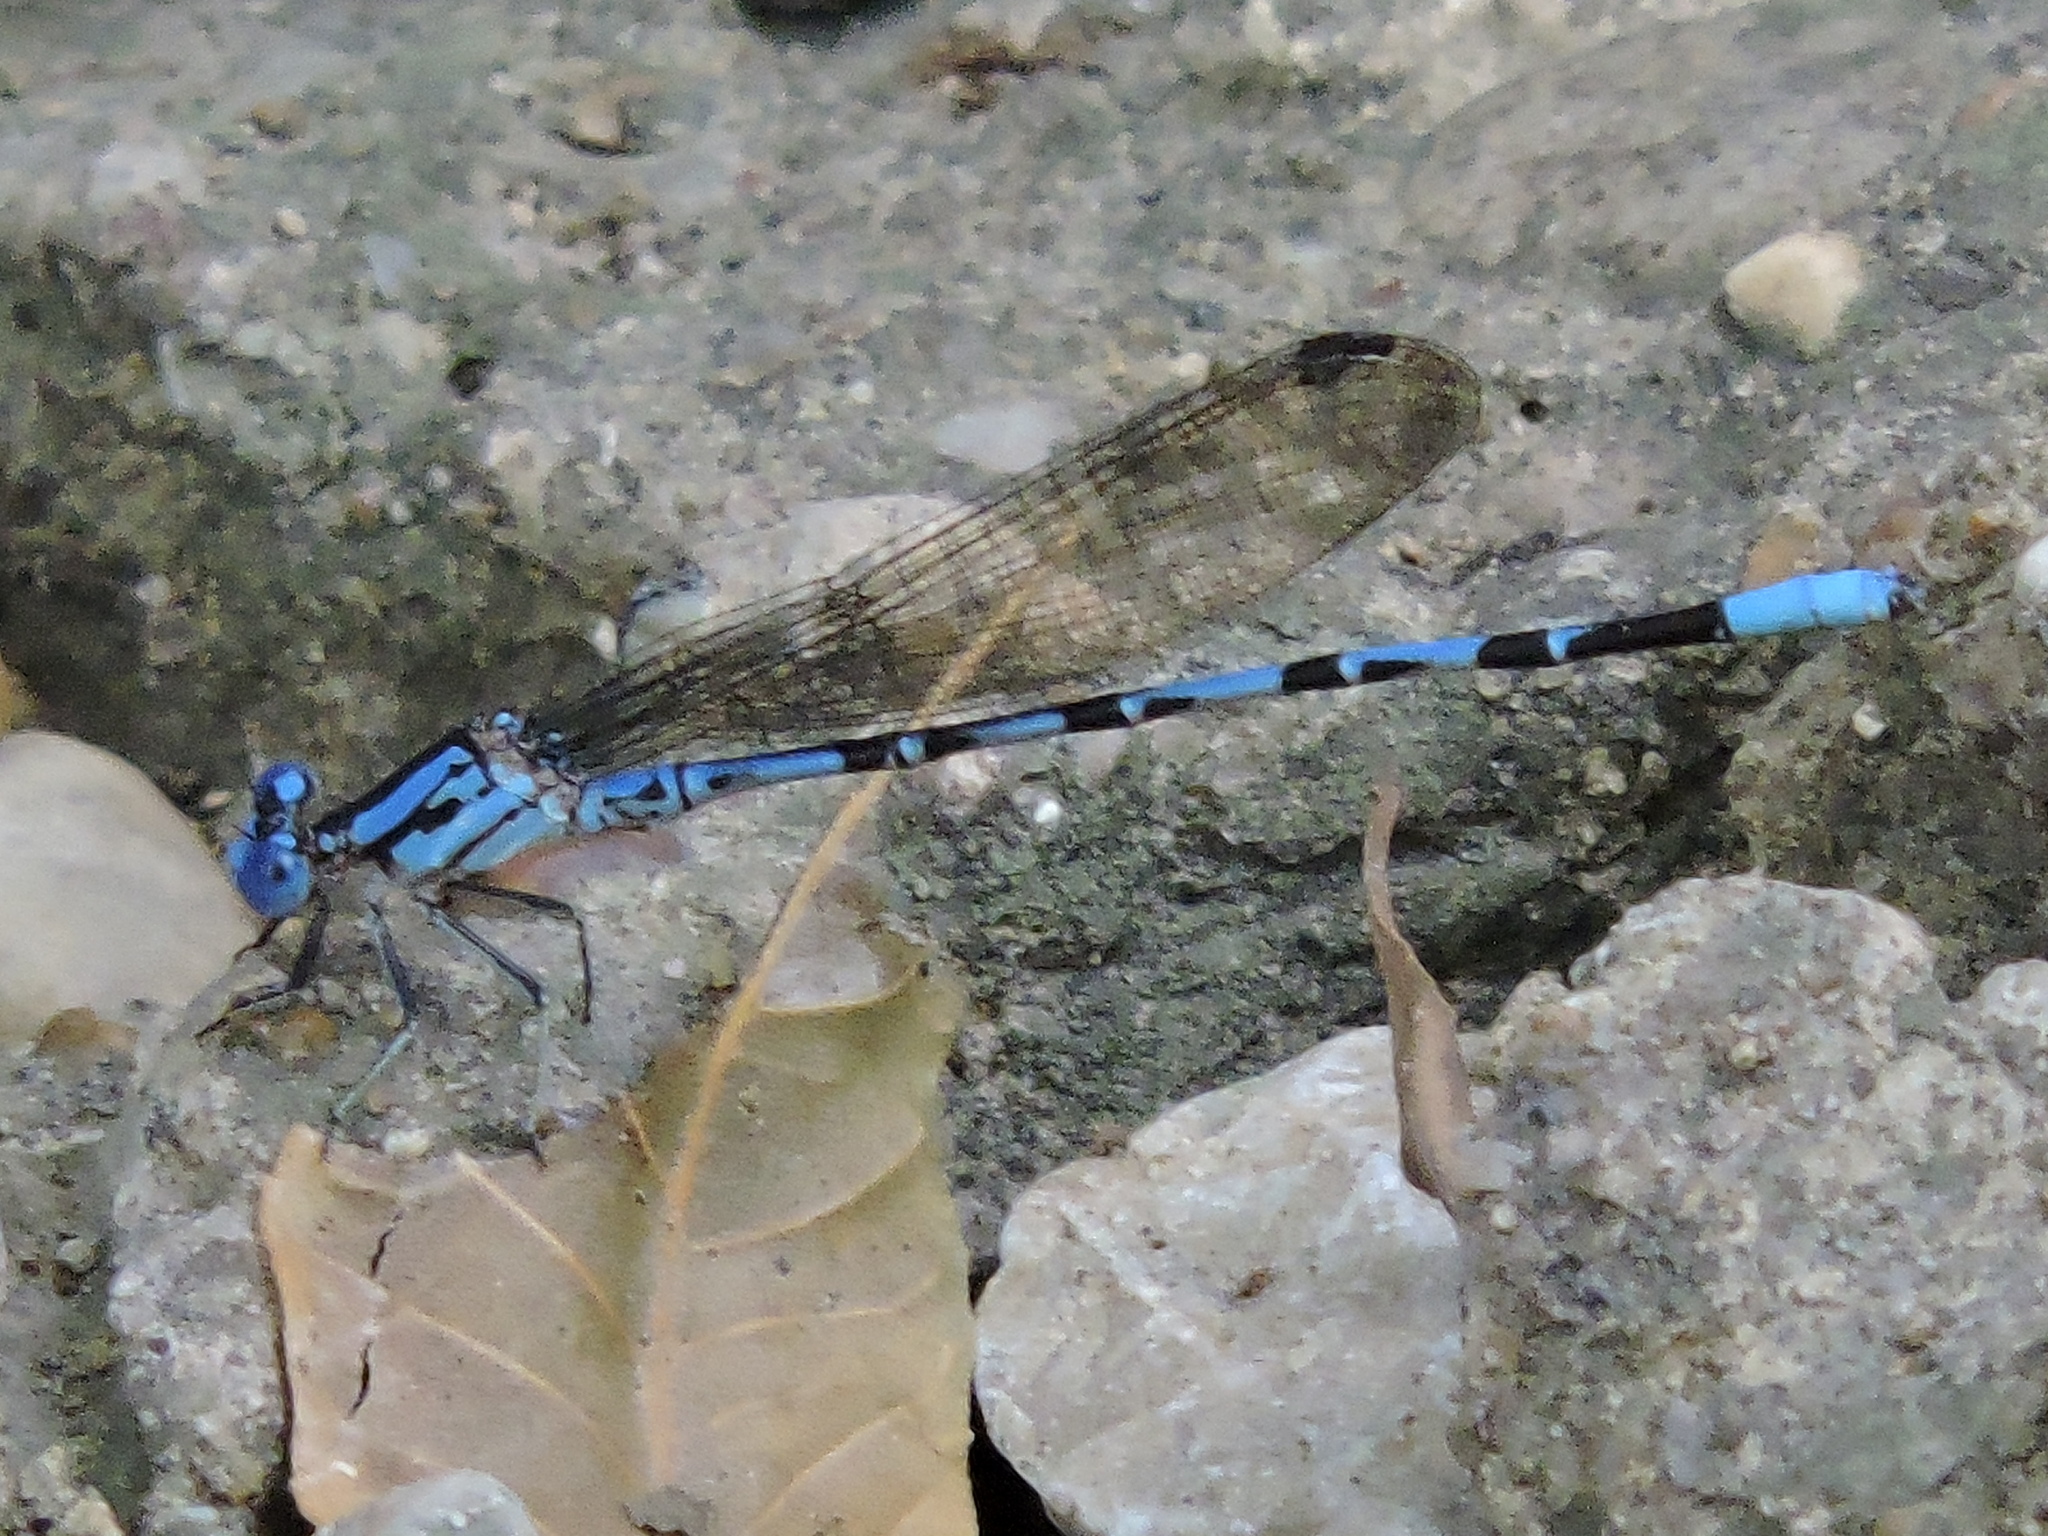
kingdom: Animalia
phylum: Arthropoda
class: Insecta
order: Odonata
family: Coenagrionidae
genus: Argia
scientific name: Argia funebris
